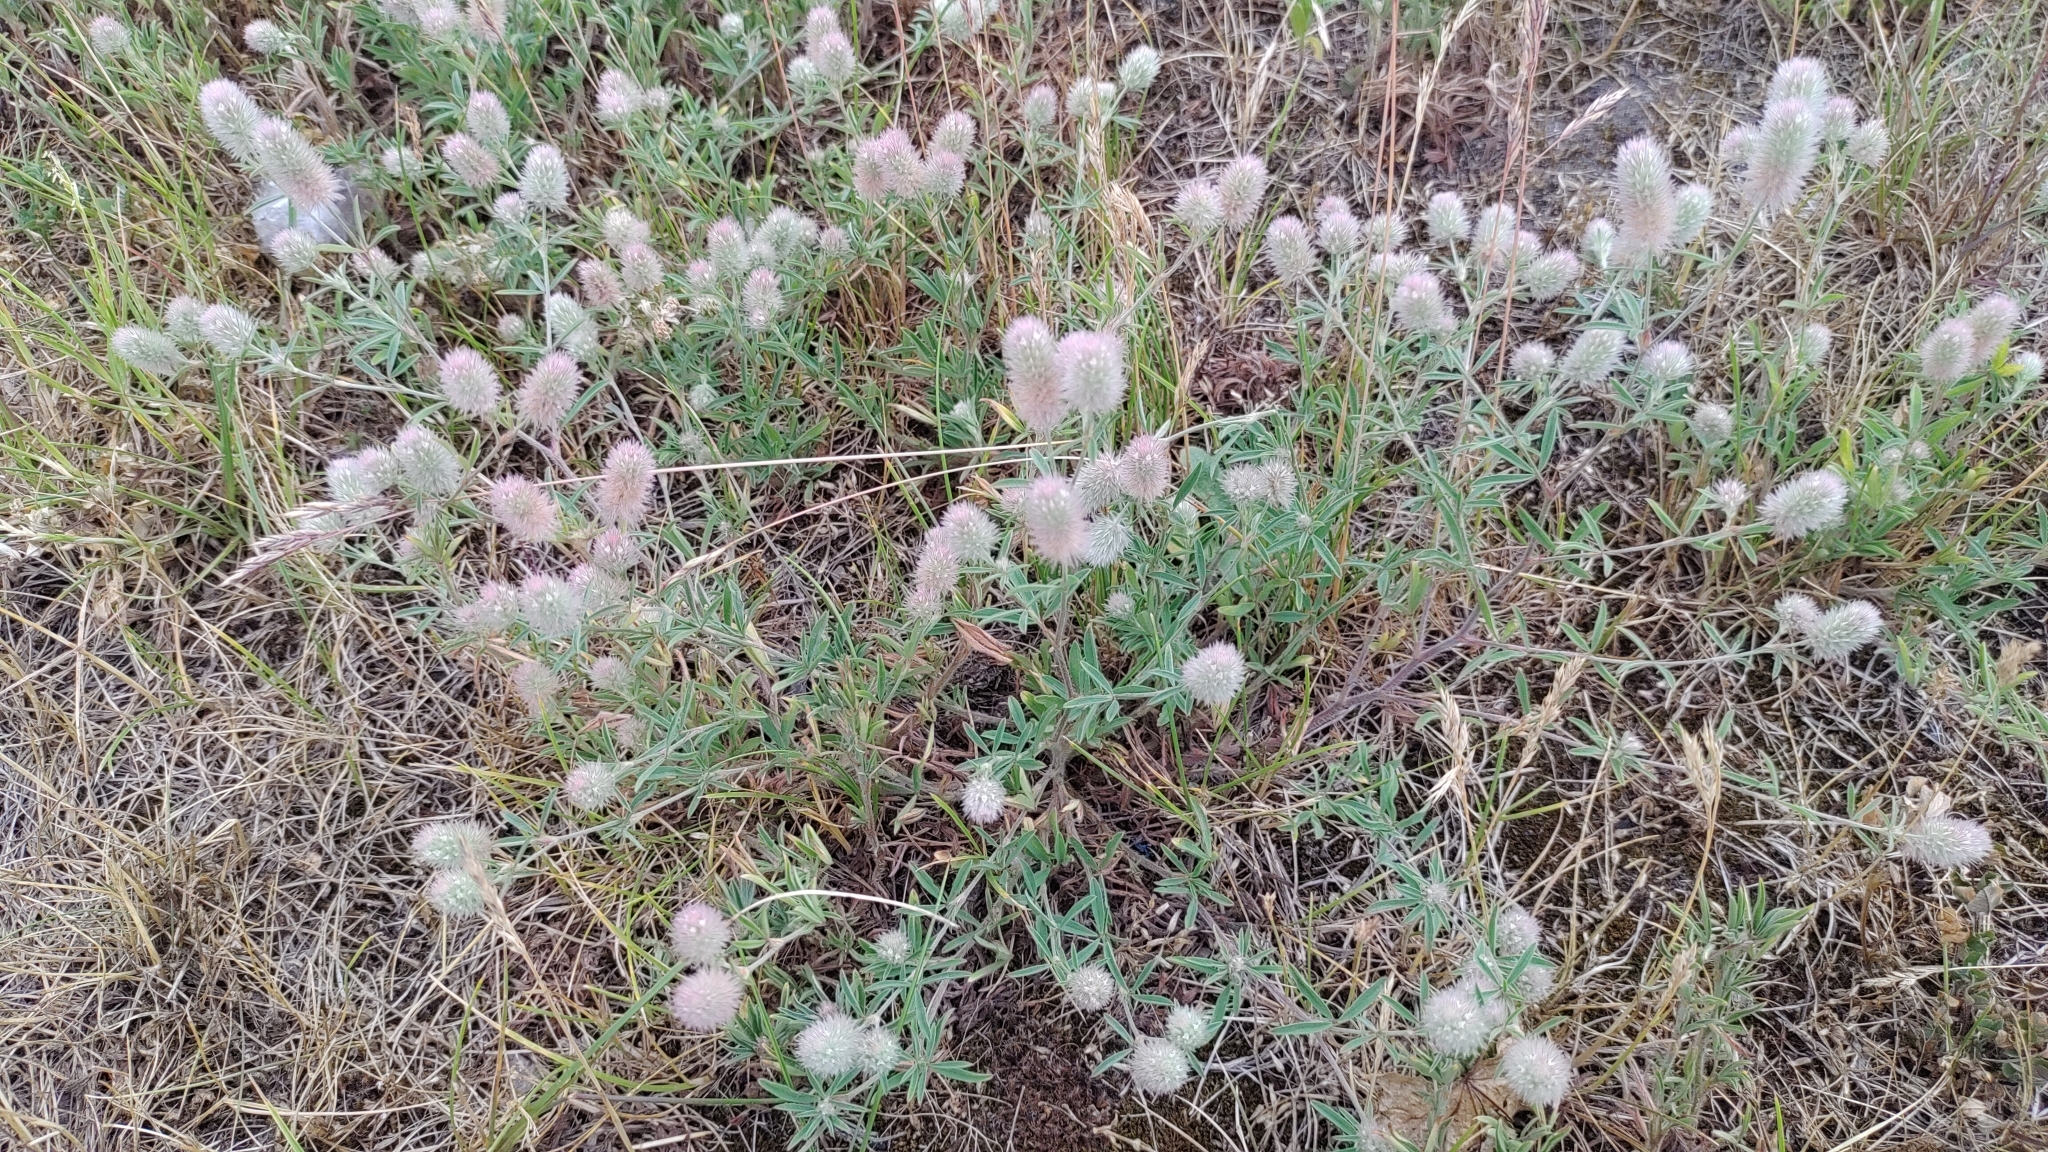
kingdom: Plantae
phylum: Tracheophyta
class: Magnoliopsida
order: Fabales
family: Fabaceae
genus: Trifolium
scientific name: Trifolium arvense
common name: Hare's-foot clover
